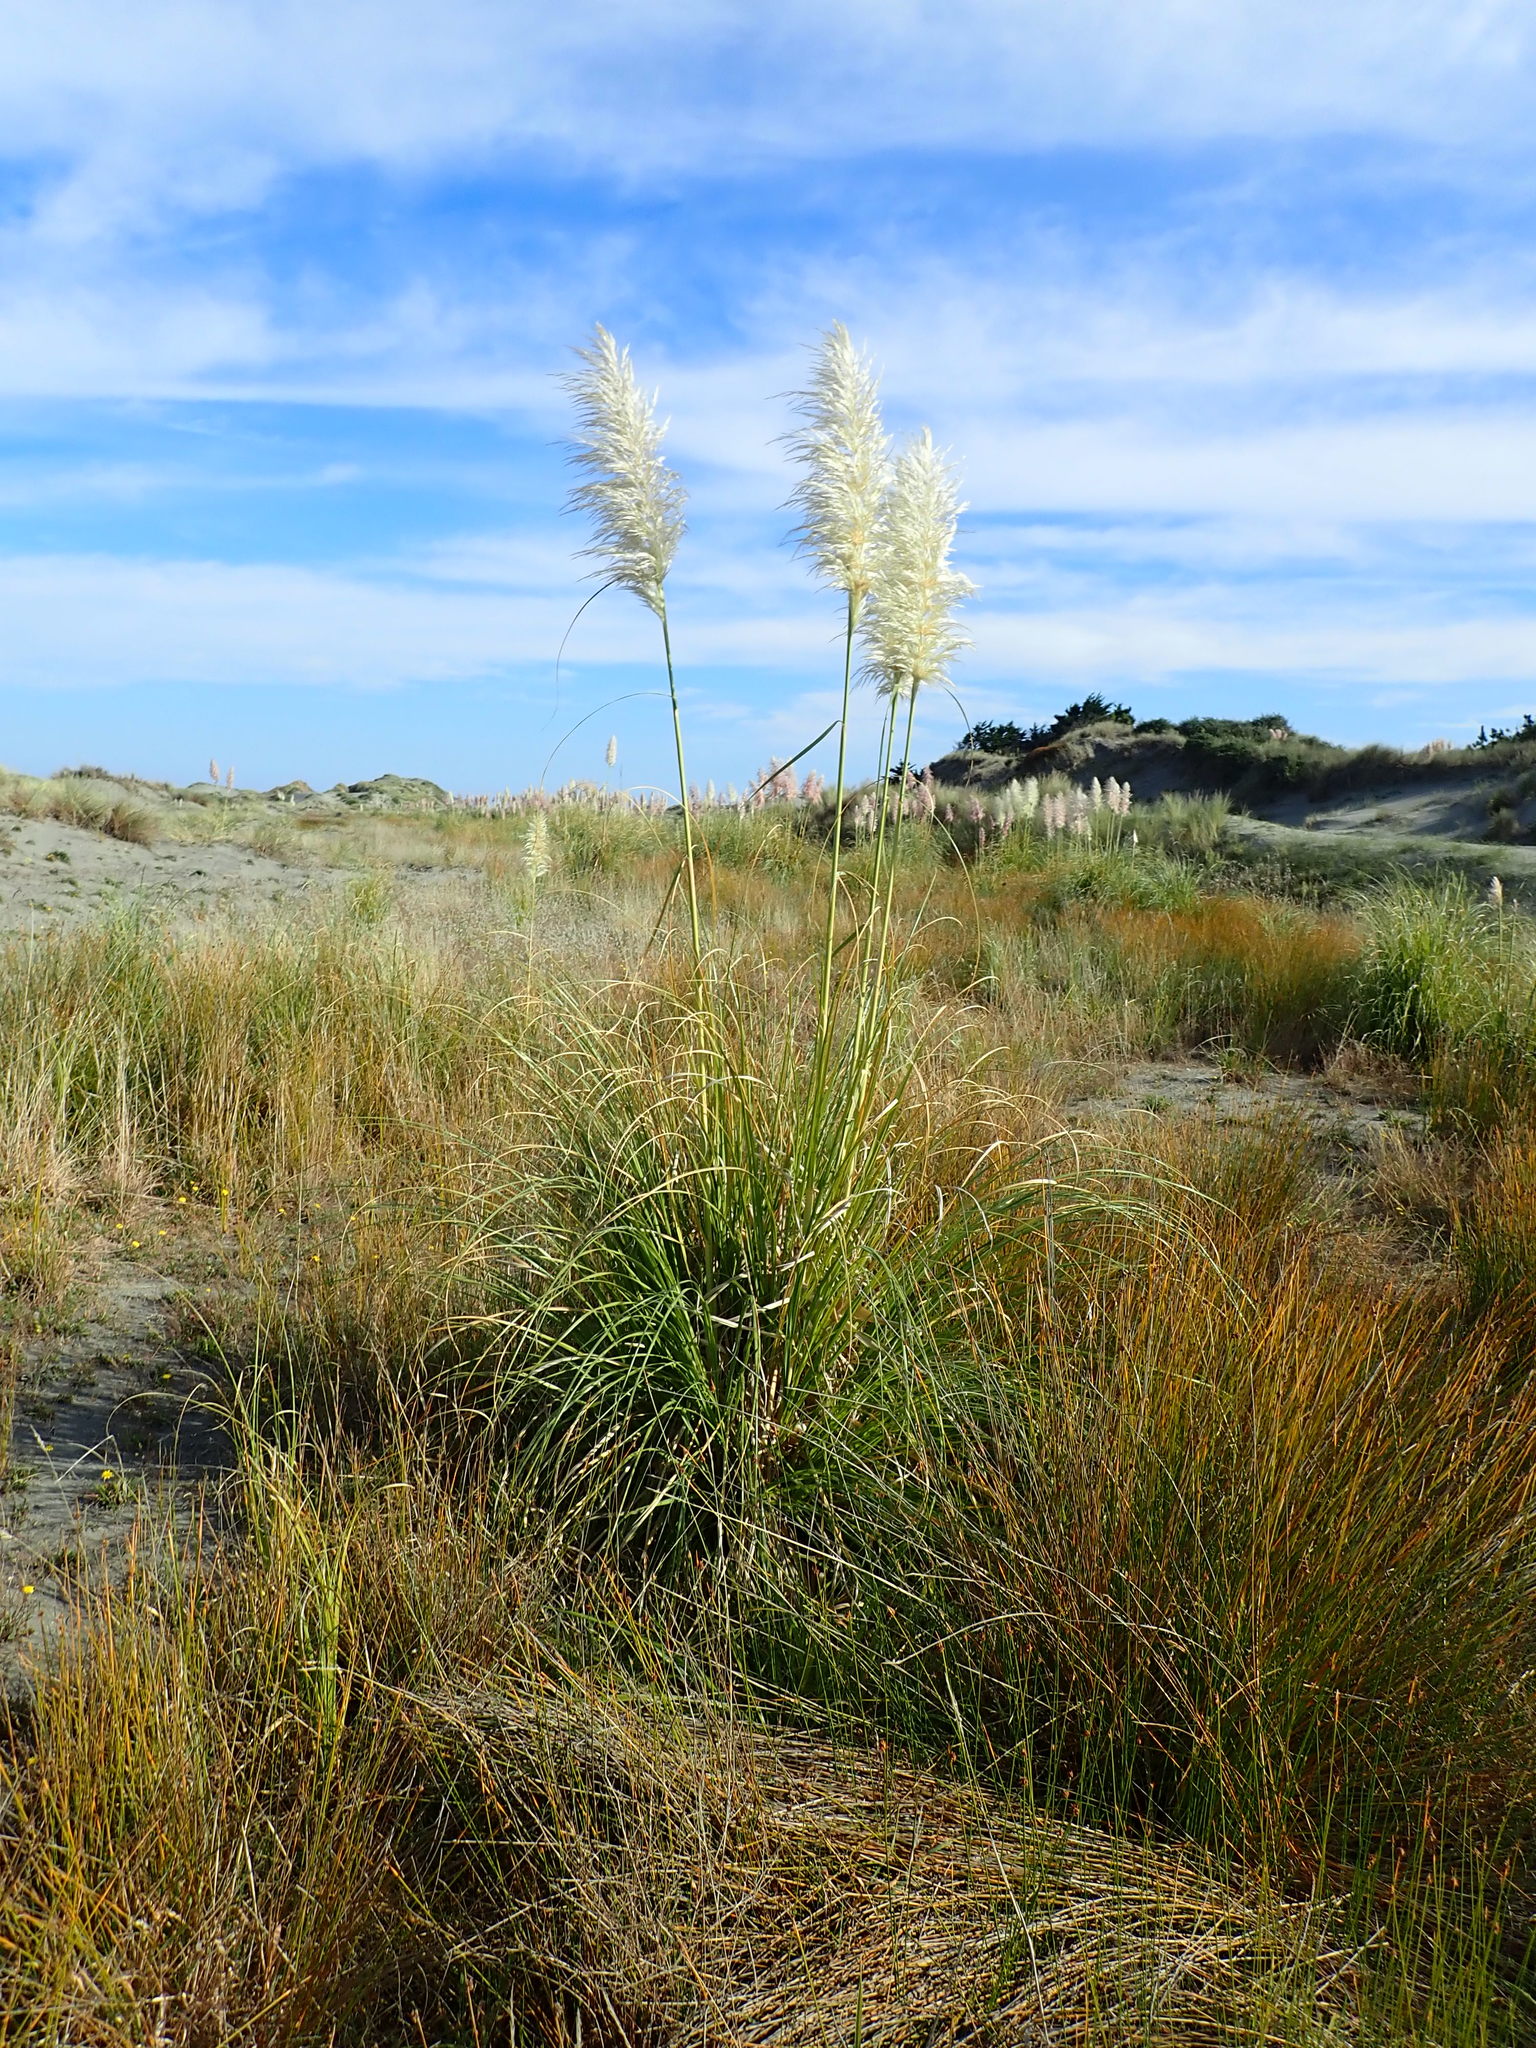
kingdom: Plantae
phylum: Tracheophyta
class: Liliopsida
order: Poales
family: Poaceae
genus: Cortaderia
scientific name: Cortaderia selloana
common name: Uruguayan pampas grass
